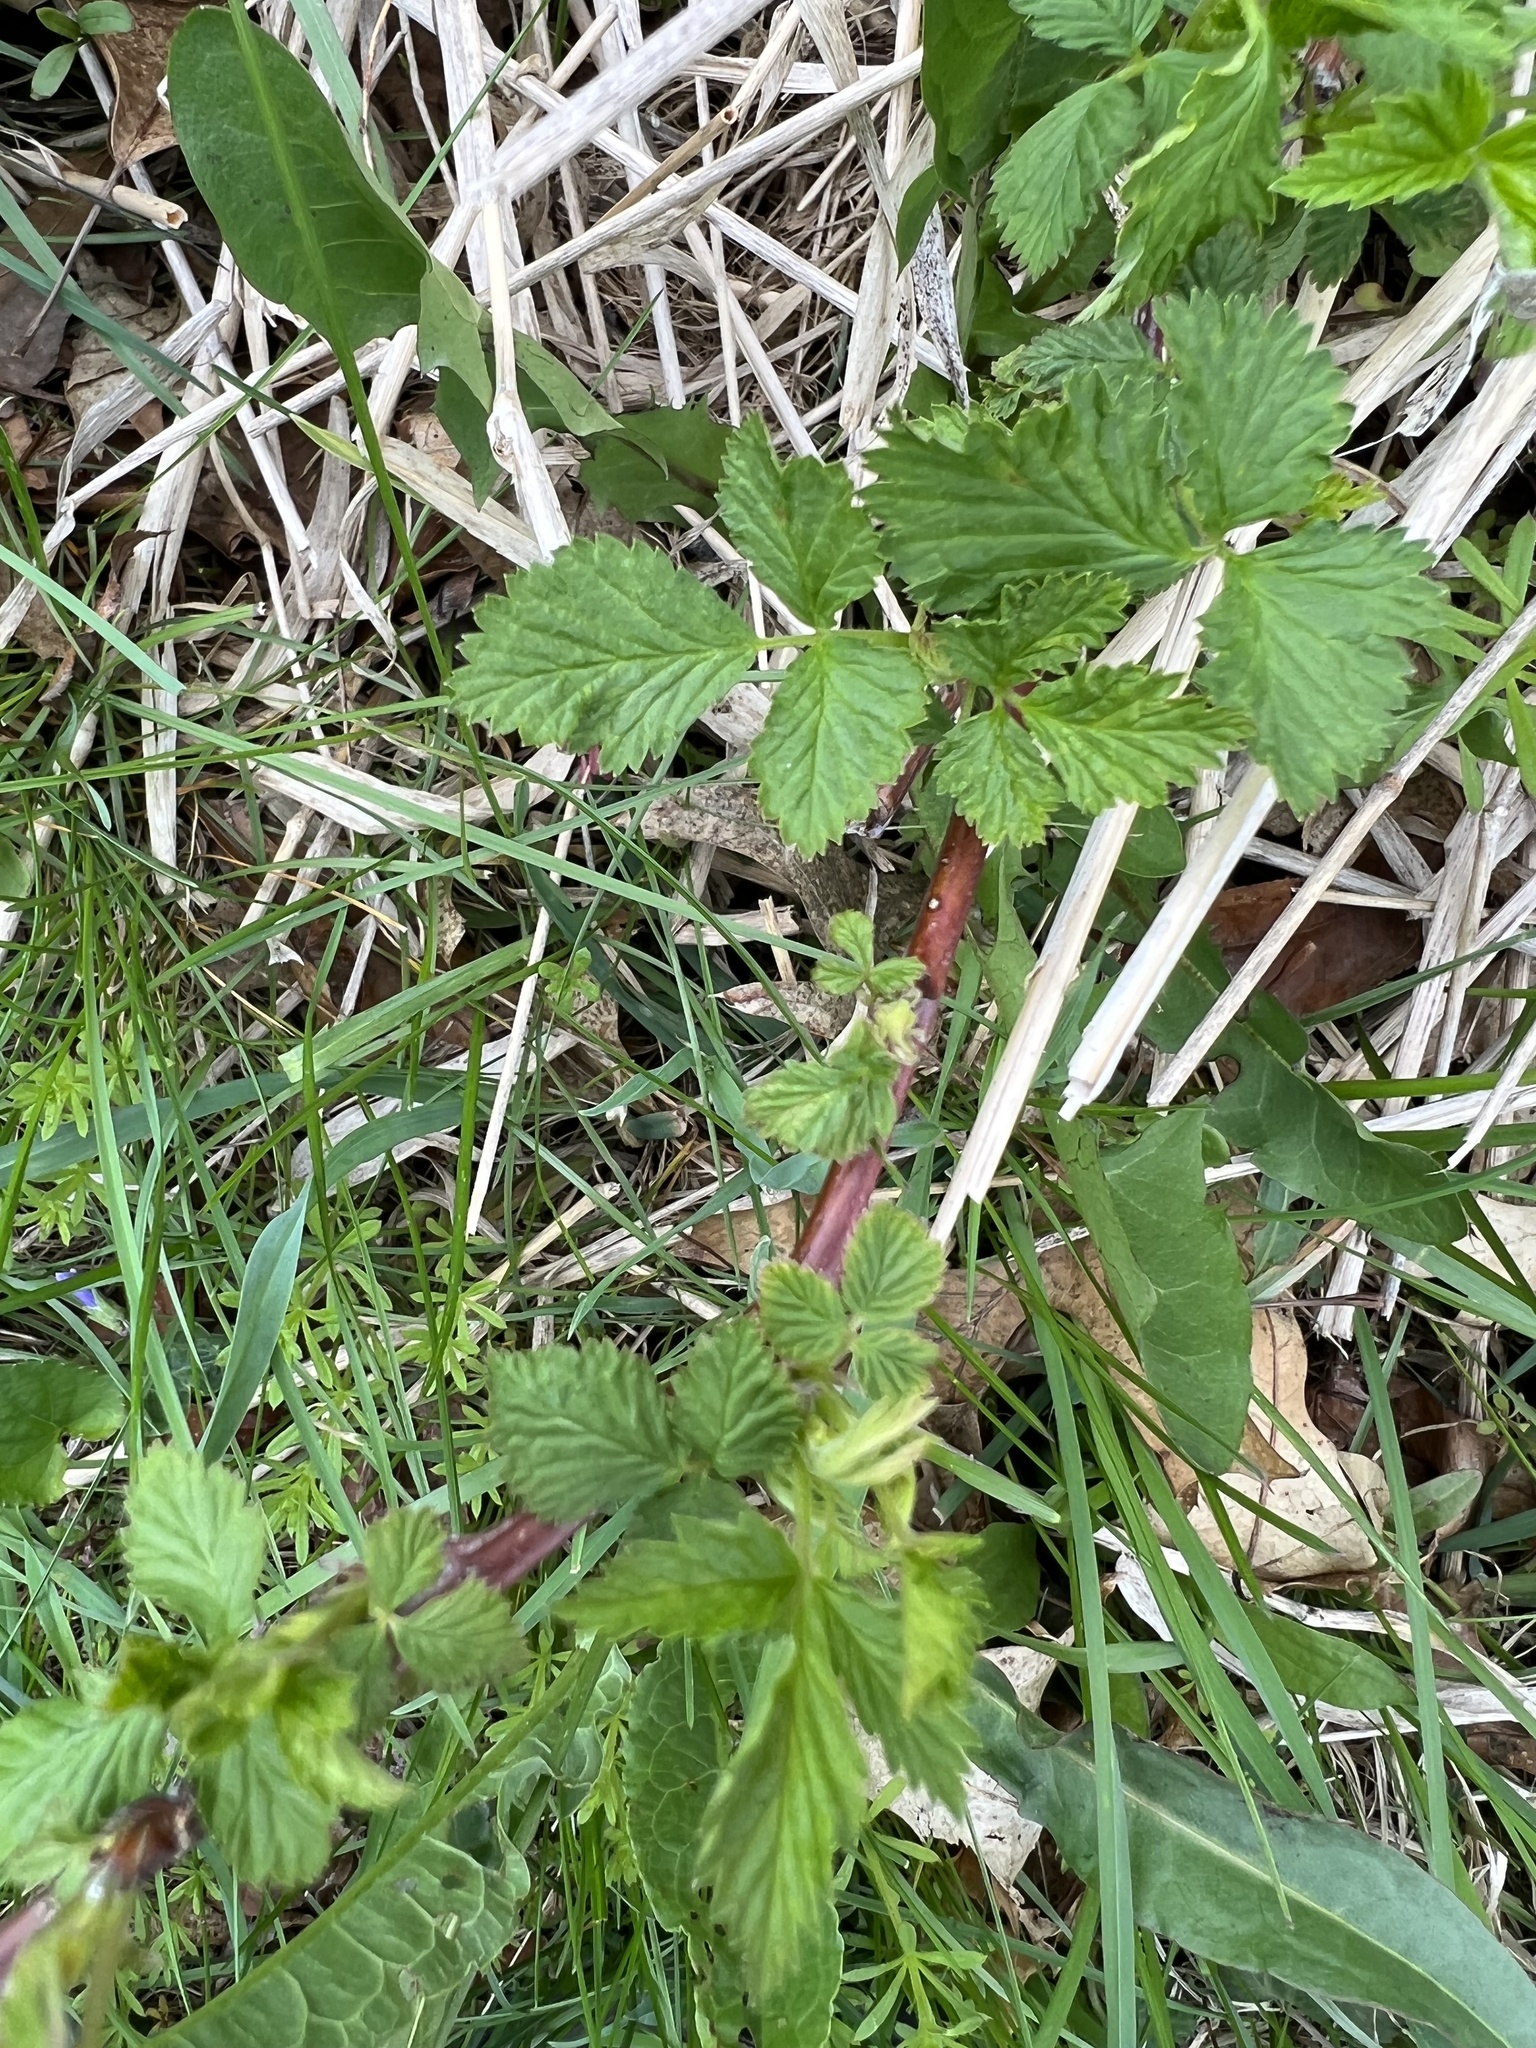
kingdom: Plantae
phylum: Tracheophyta
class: Magnoliopsida
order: Rosales
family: Rosaceae
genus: Rubus
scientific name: Rubus occidentalis
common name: Black raspberry
